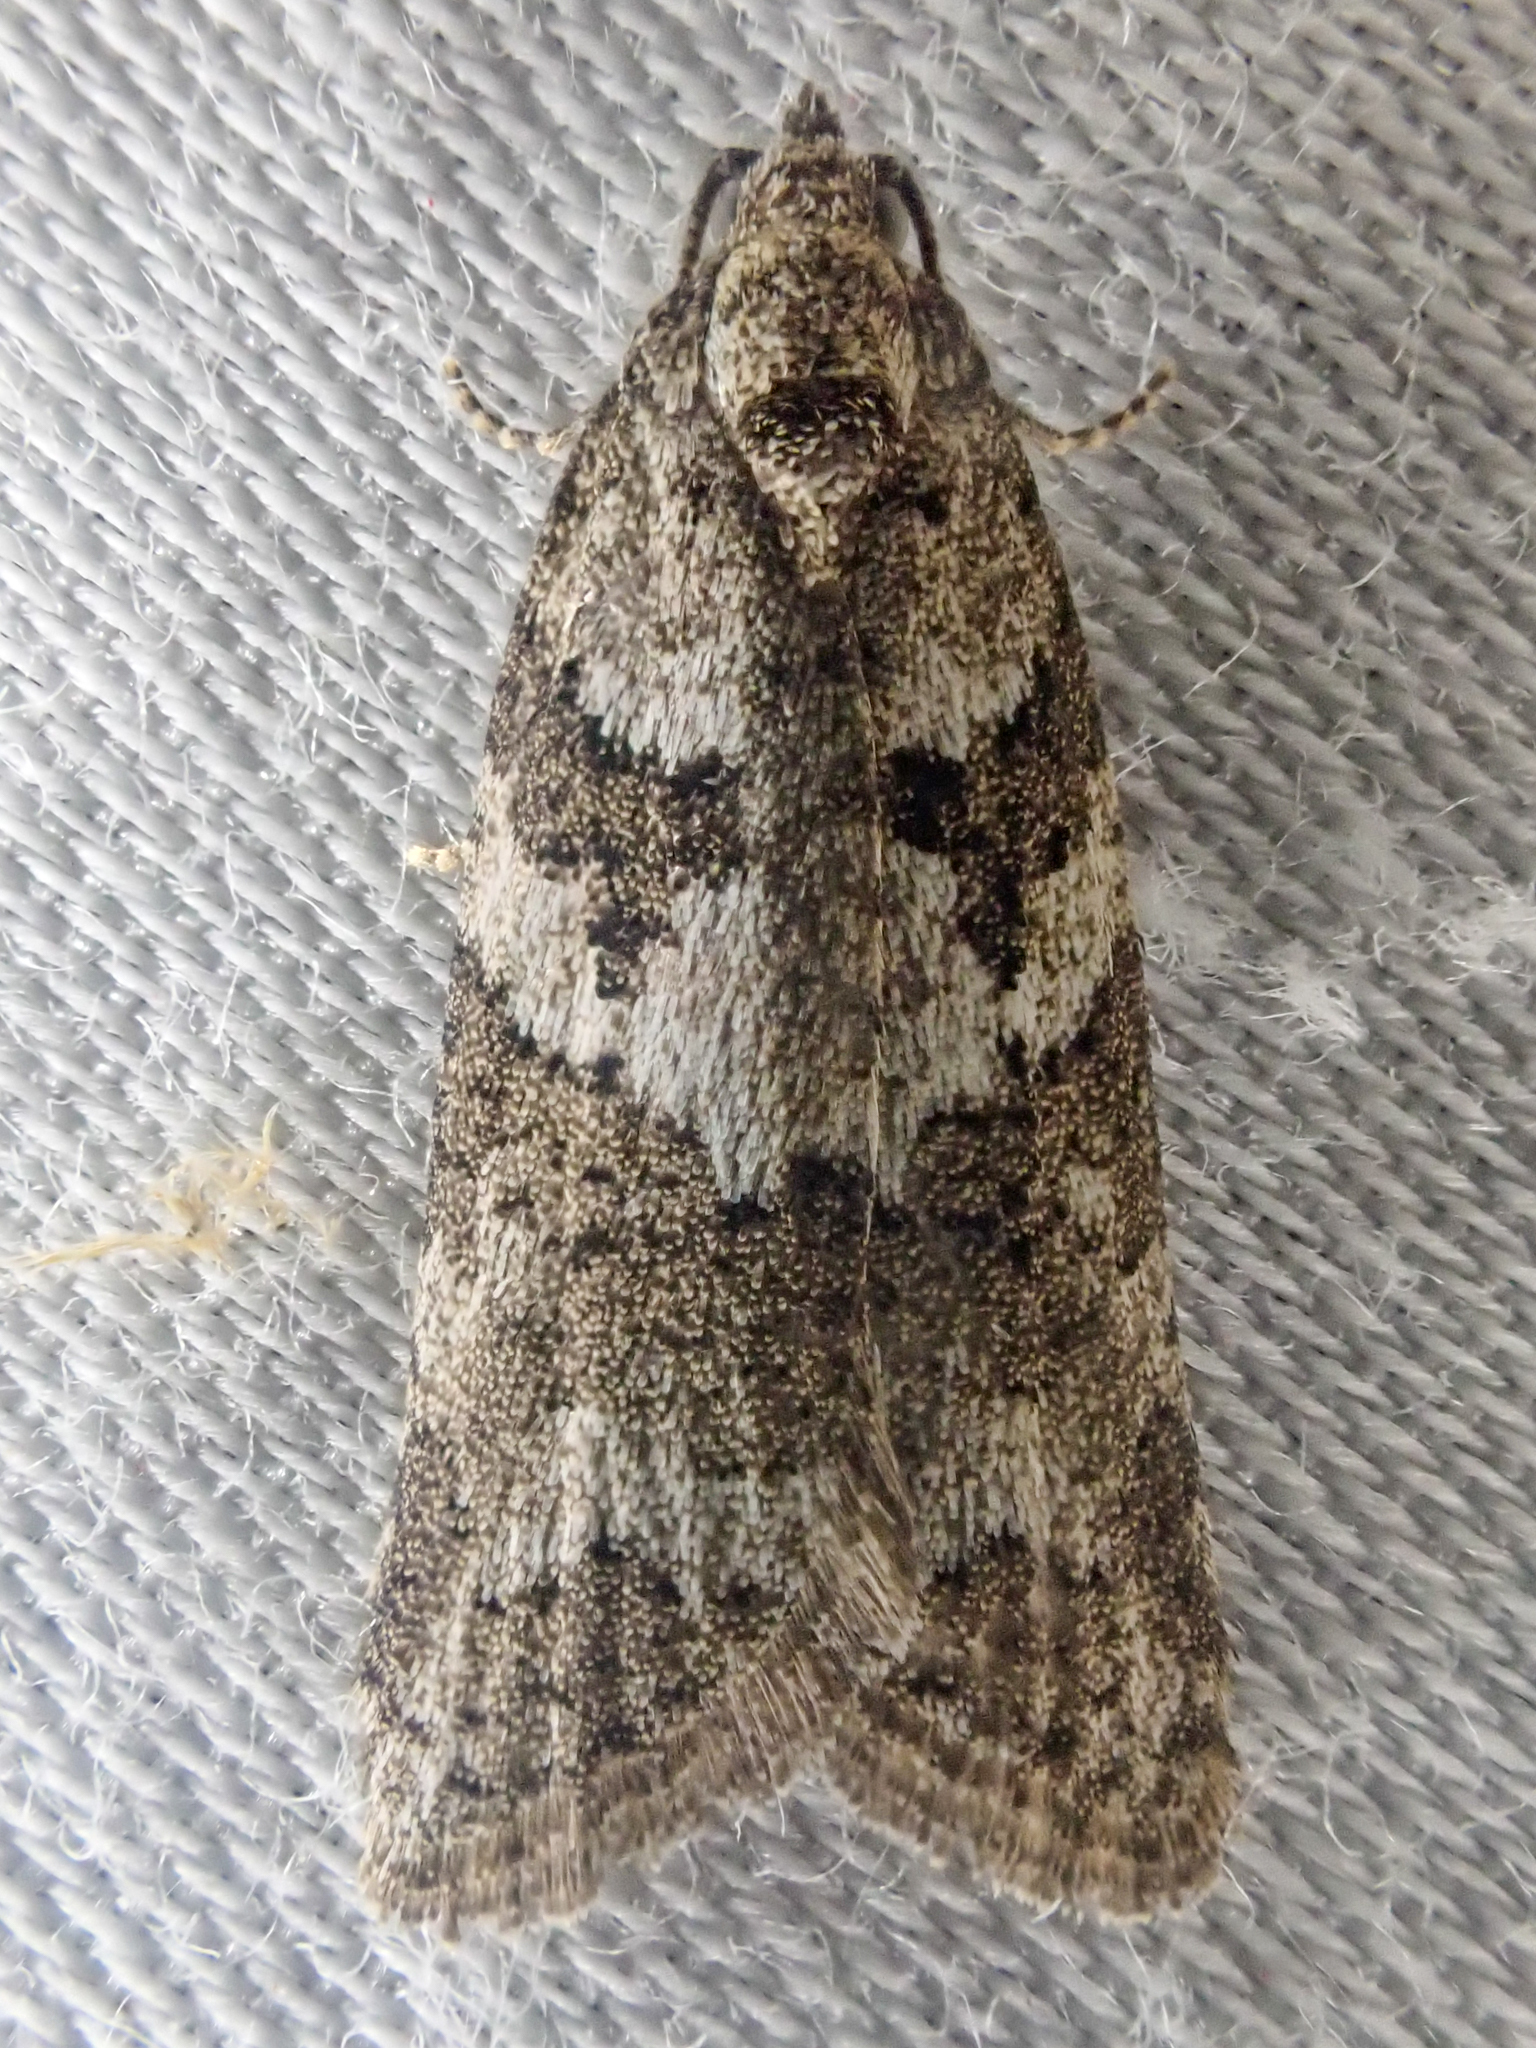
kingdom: Animalia
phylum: Arthropoda
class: Insecta
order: Lepidoptera
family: Tortricidae
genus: Cnephasia
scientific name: Cnephasia stephensiana
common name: Grey tortrix
